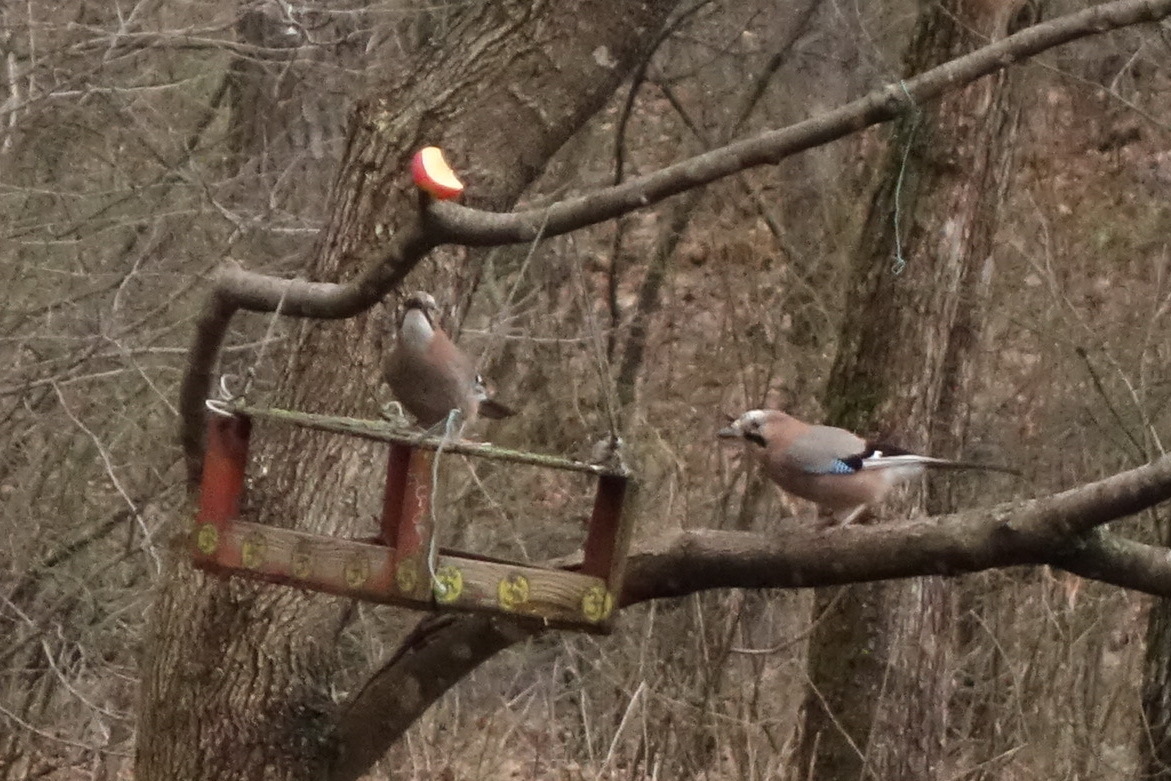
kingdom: Animalia
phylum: Chordata
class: Aves
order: Passeriformes
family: Corvidae
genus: Garrulus
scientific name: Garrulus glandarius
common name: Eurasian jay
